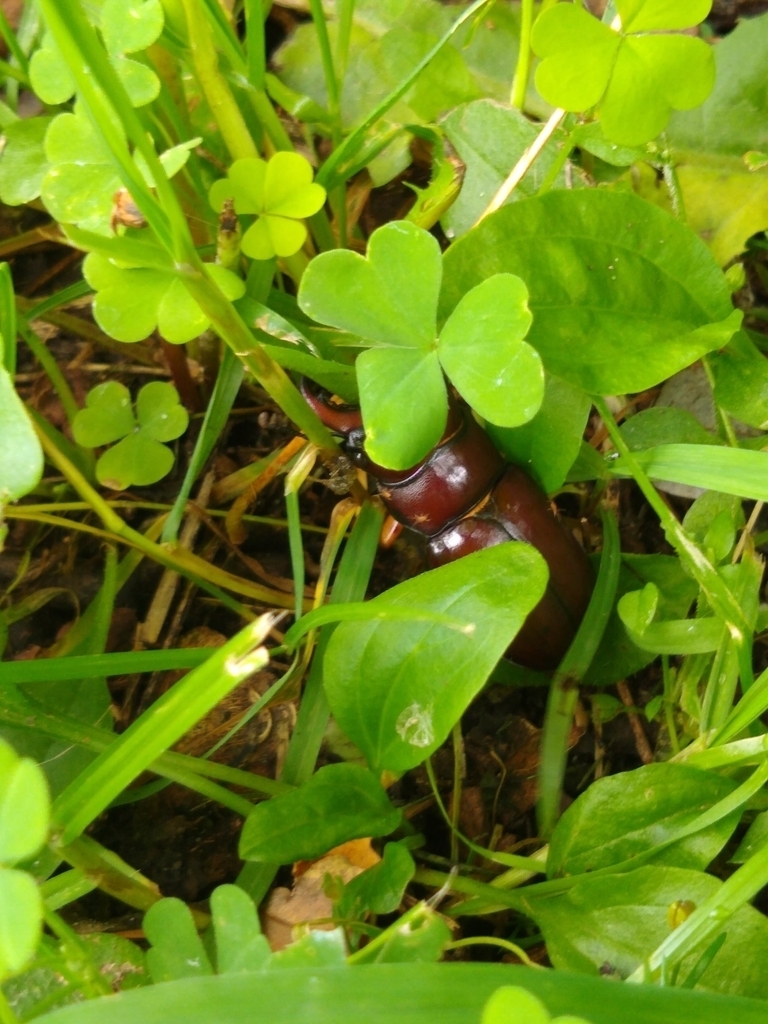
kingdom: Animalia
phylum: Arthropoda
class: Insecta
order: Coleoptera
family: Lucanidae
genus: Lucanus
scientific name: Lucanus capreolus
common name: Stag beetle
